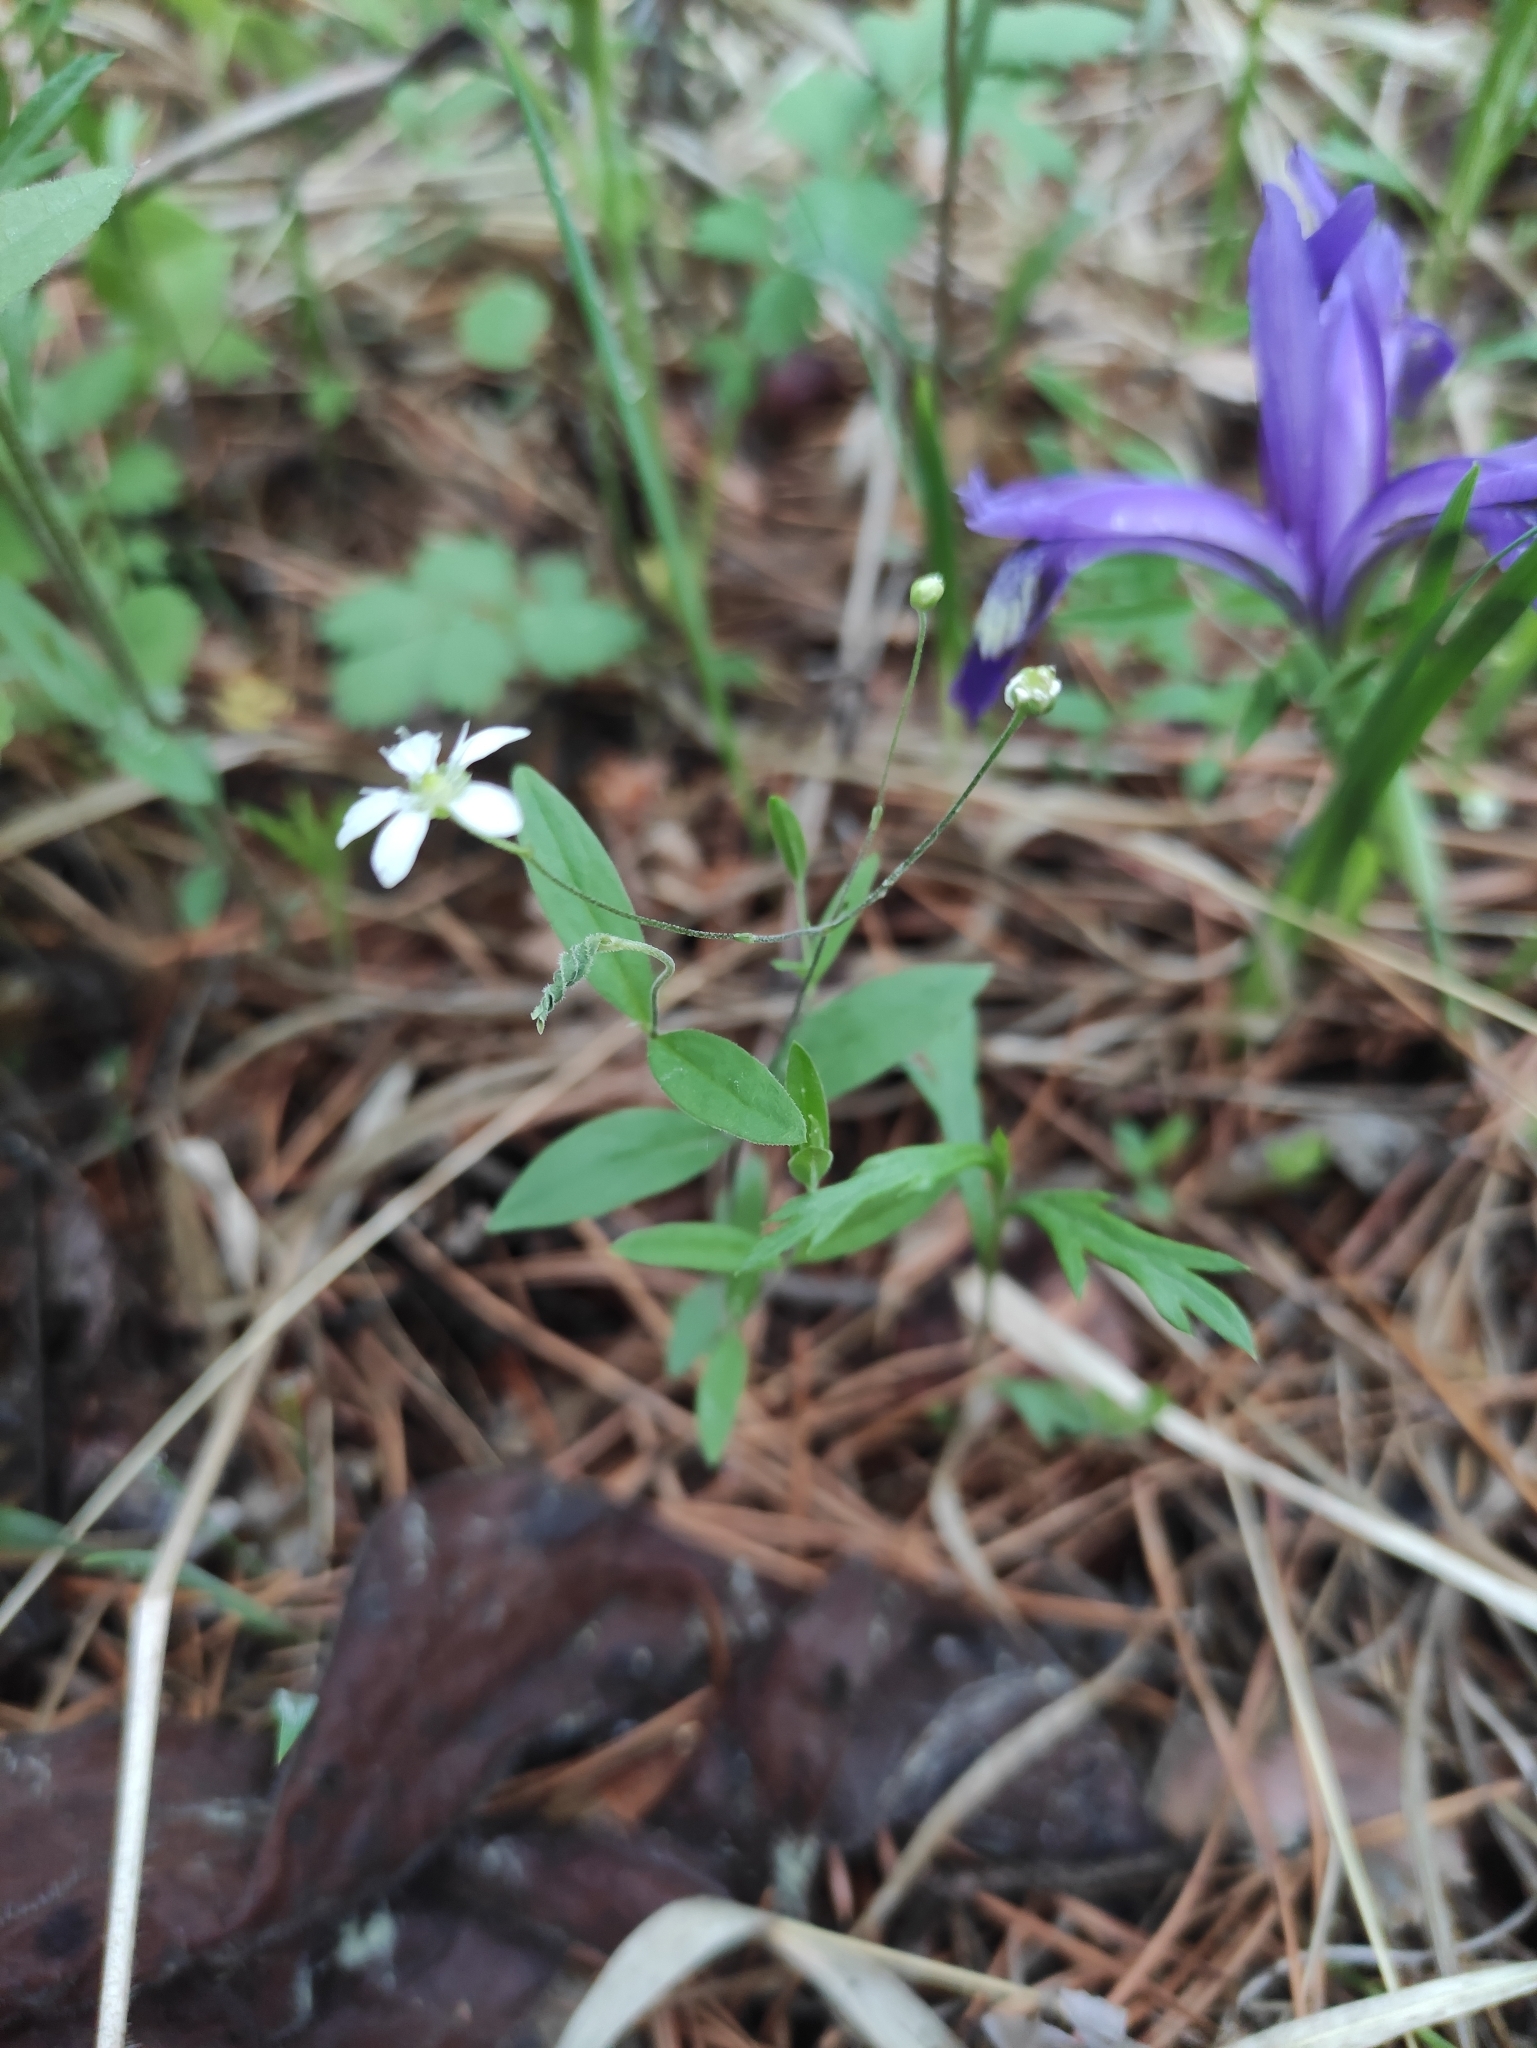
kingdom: Plantae
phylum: Tracheophyta
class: Magnoliopsida
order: Caryophyllales
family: Caryophyllaceae
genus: Moehringia
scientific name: Moehringia lateriflora
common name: Blunt-leaved sandwort
